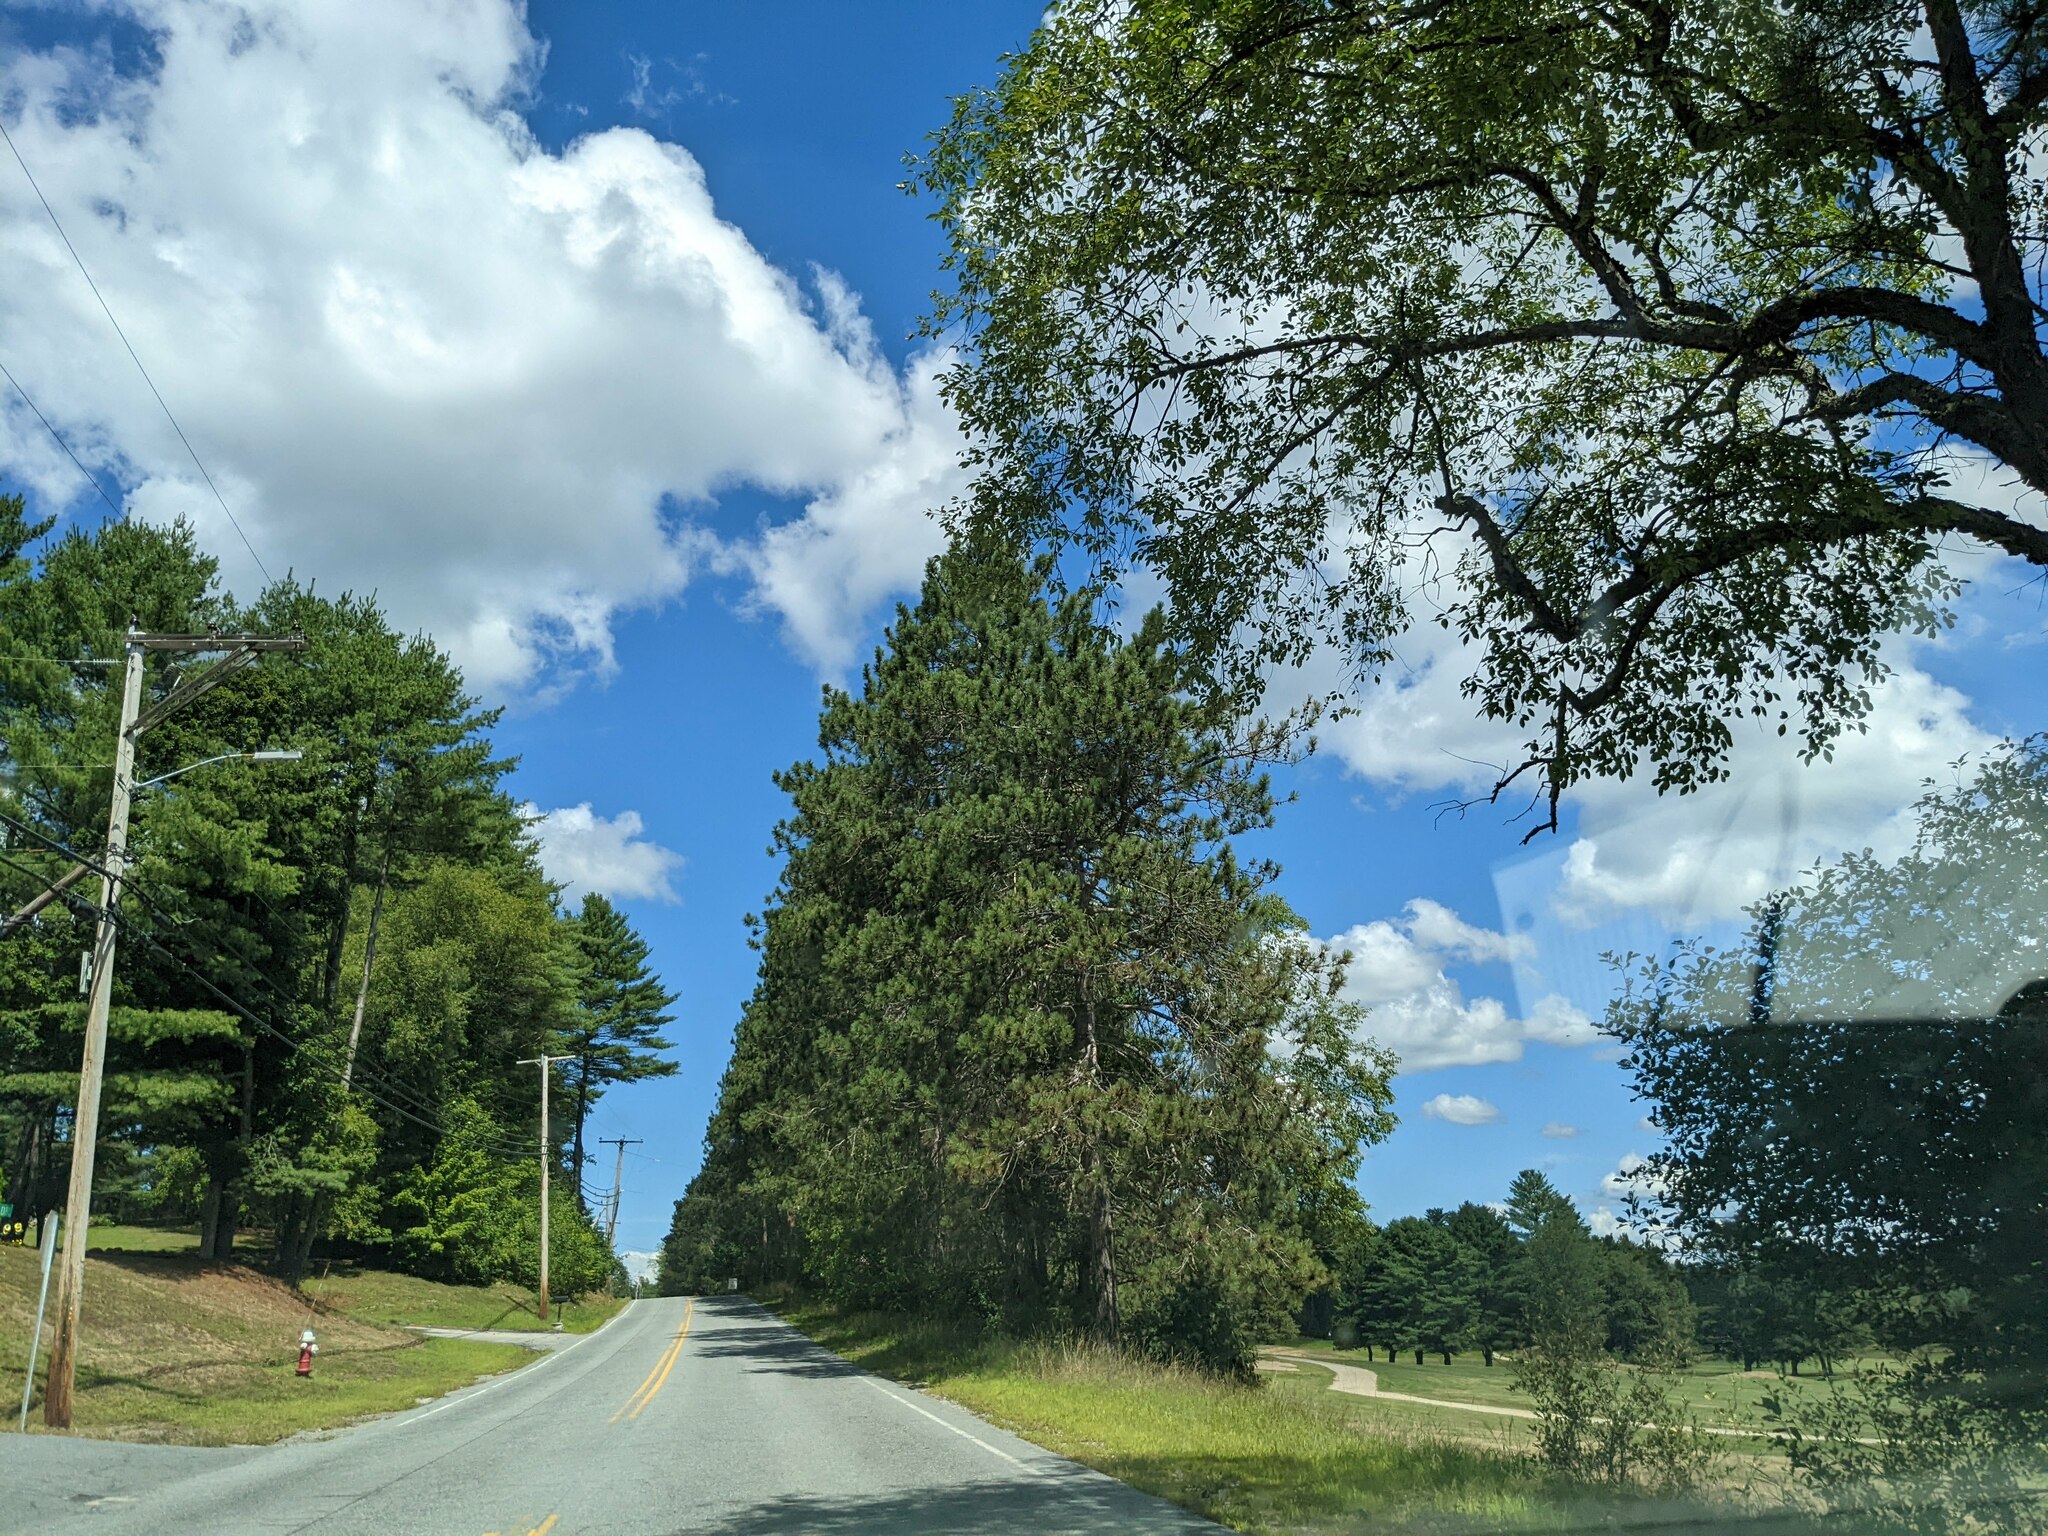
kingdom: Plantae
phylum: Tracheophyta
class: Pinopsida
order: Pinales
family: Pinaceae
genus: Pinus
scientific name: Pinus resinosa
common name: Norway pine
